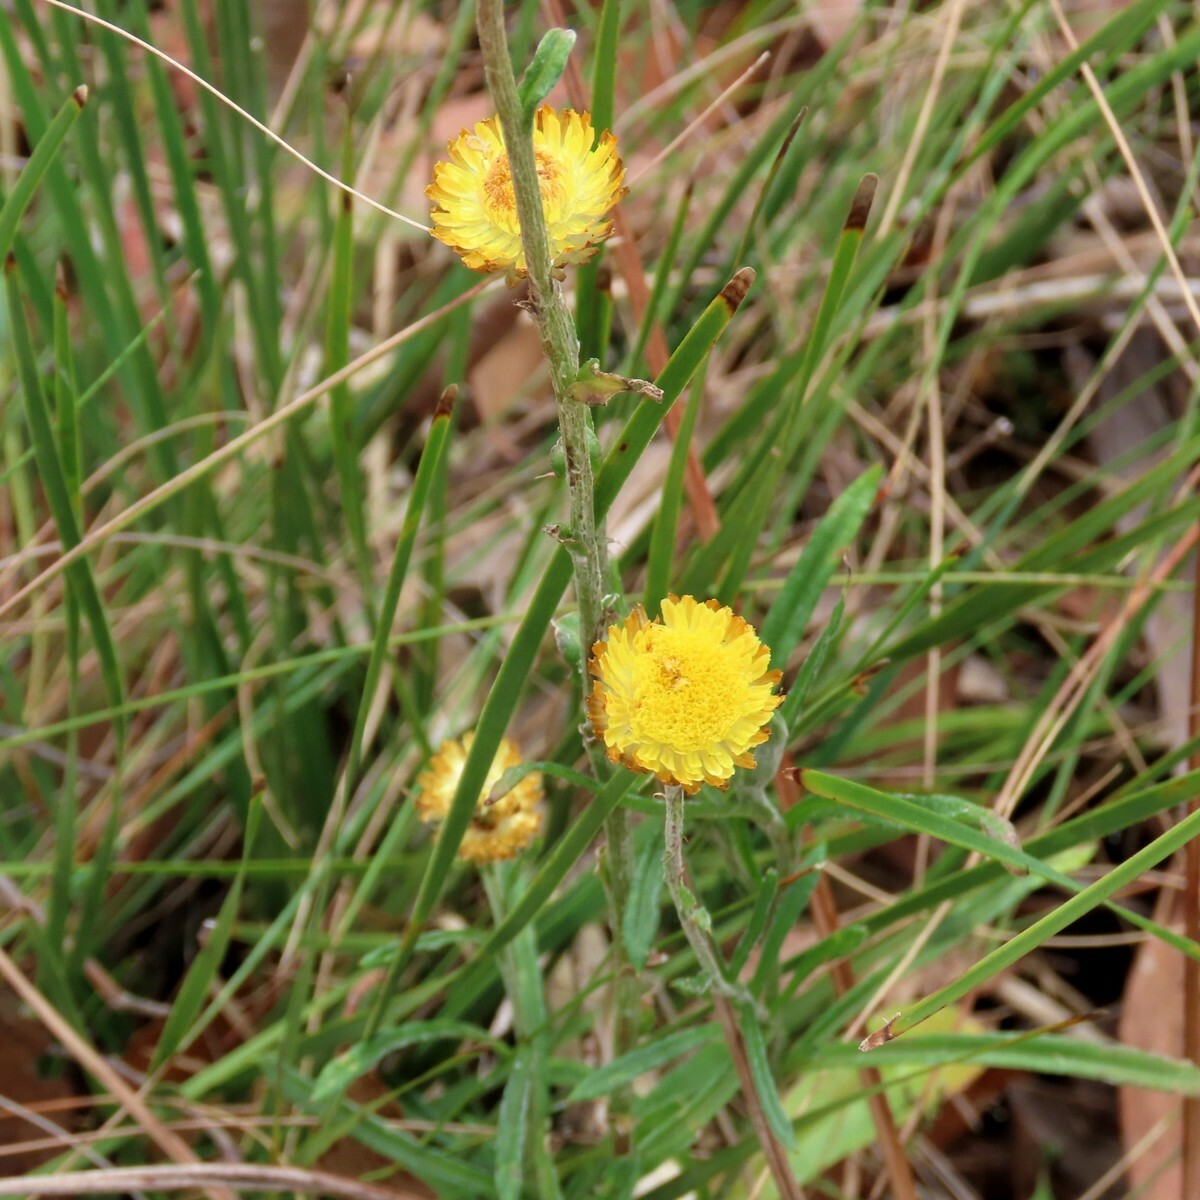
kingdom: Plantae
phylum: Tracheophyta
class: Magnoliopsida
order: Asterales
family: Asteraceae
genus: Coronidium
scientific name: Coronidium scorpioides
